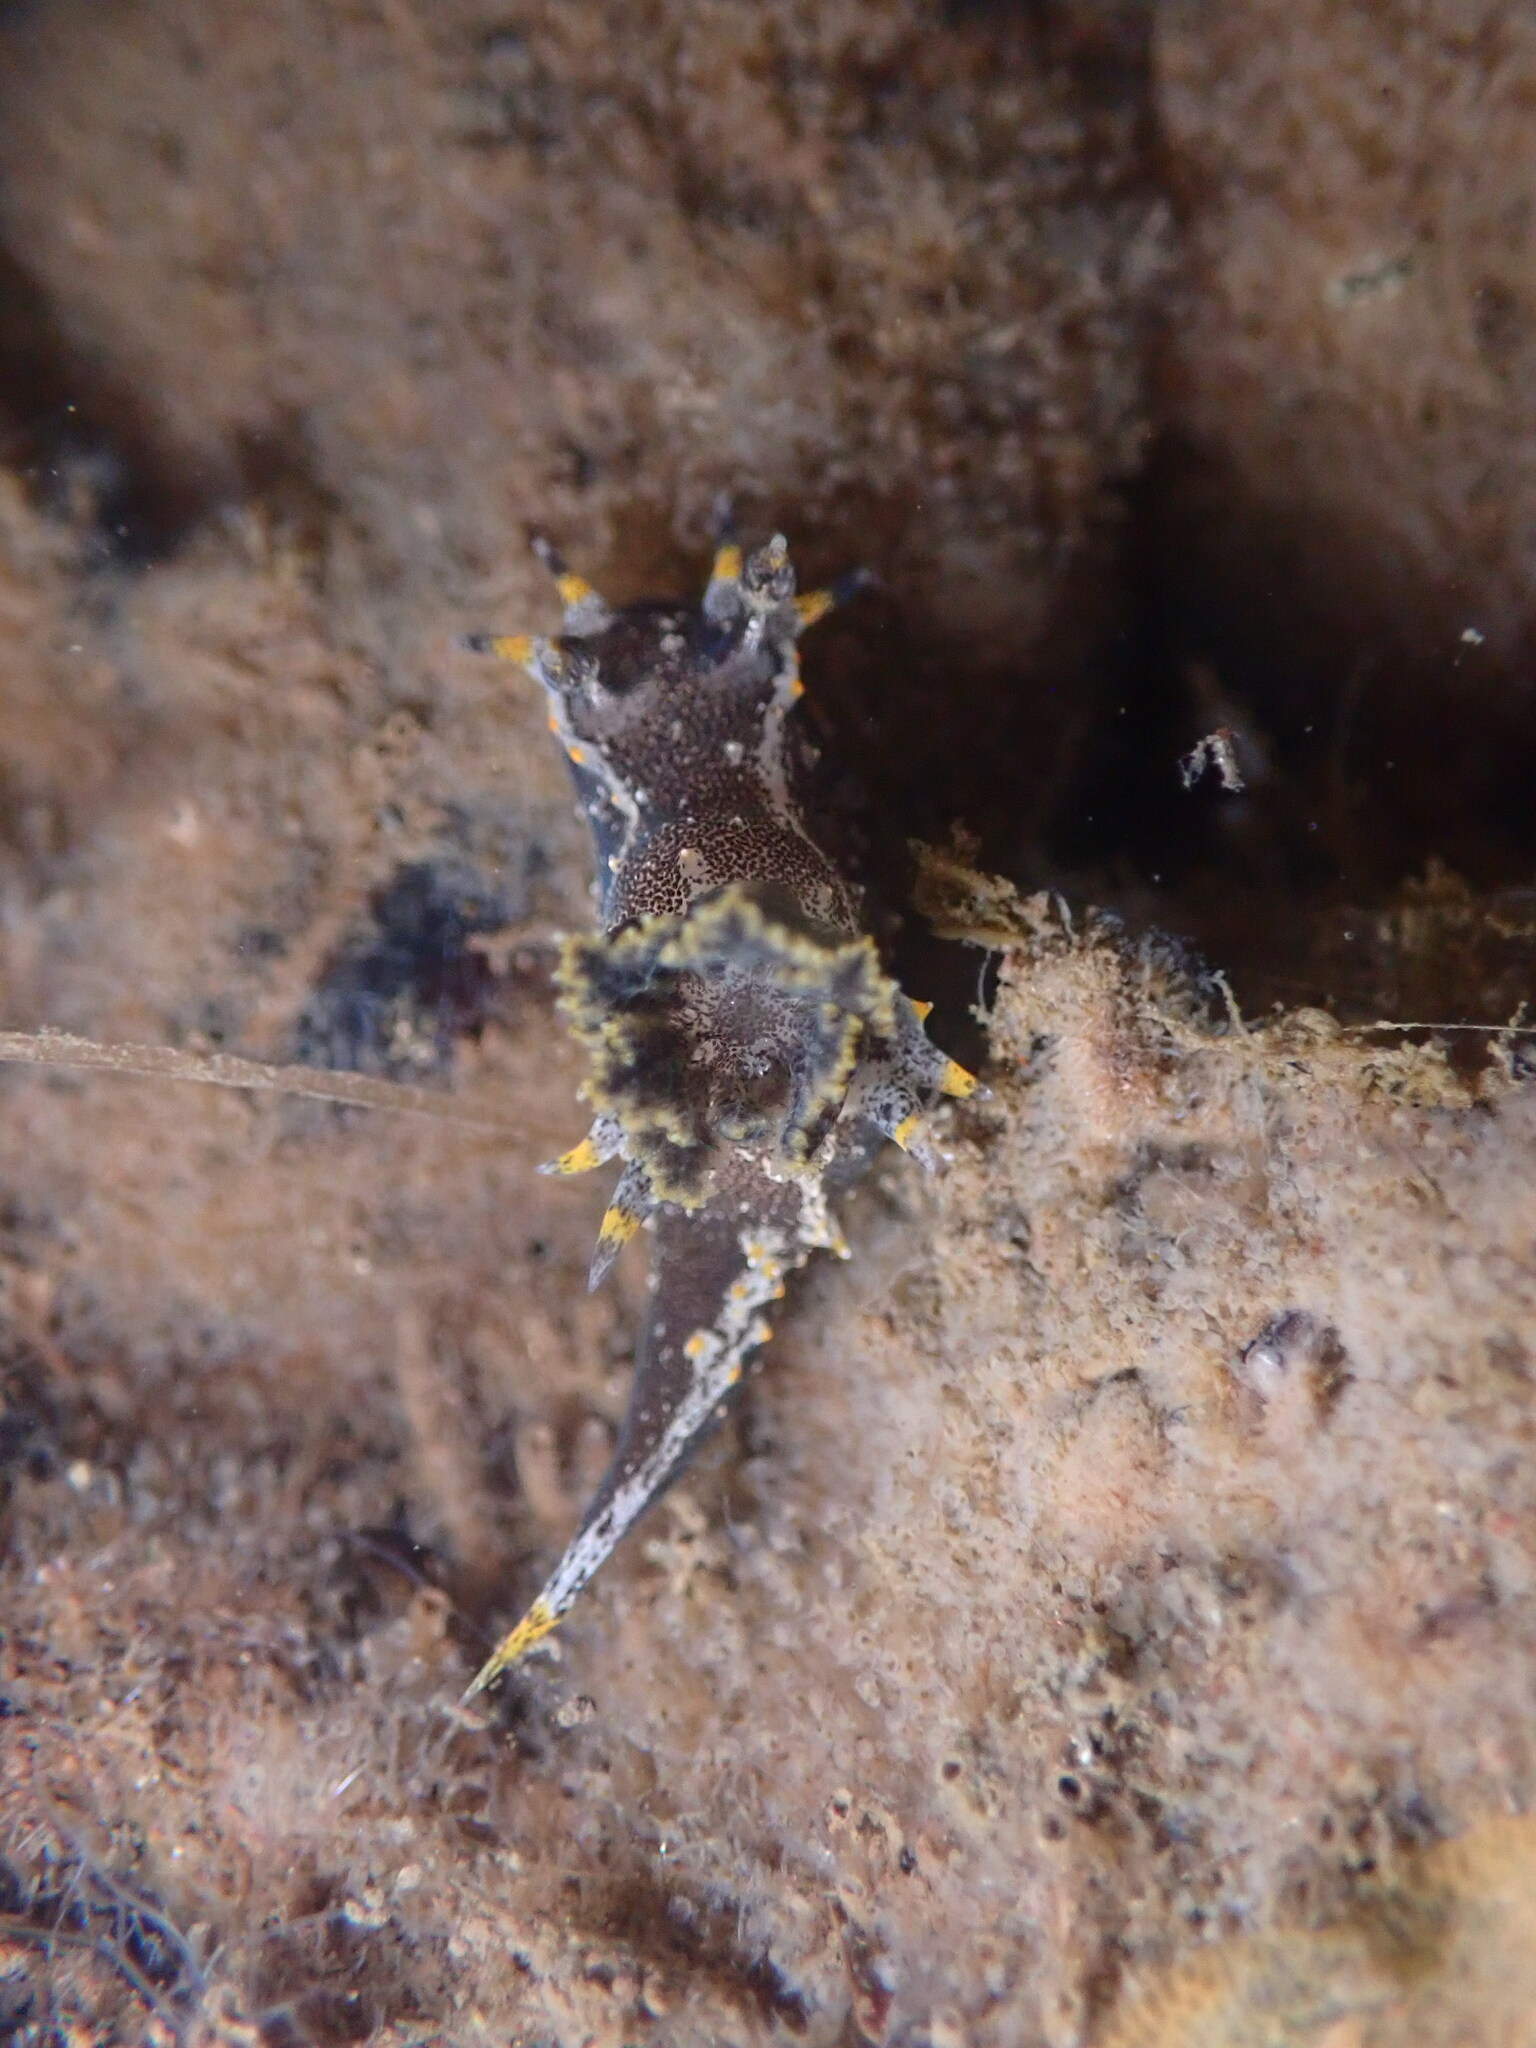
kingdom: Animalia
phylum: Mollusca
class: Gastropoda
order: Nudibranchia
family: Polyceridae
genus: Polycera
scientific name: Polycera hedgpethi
